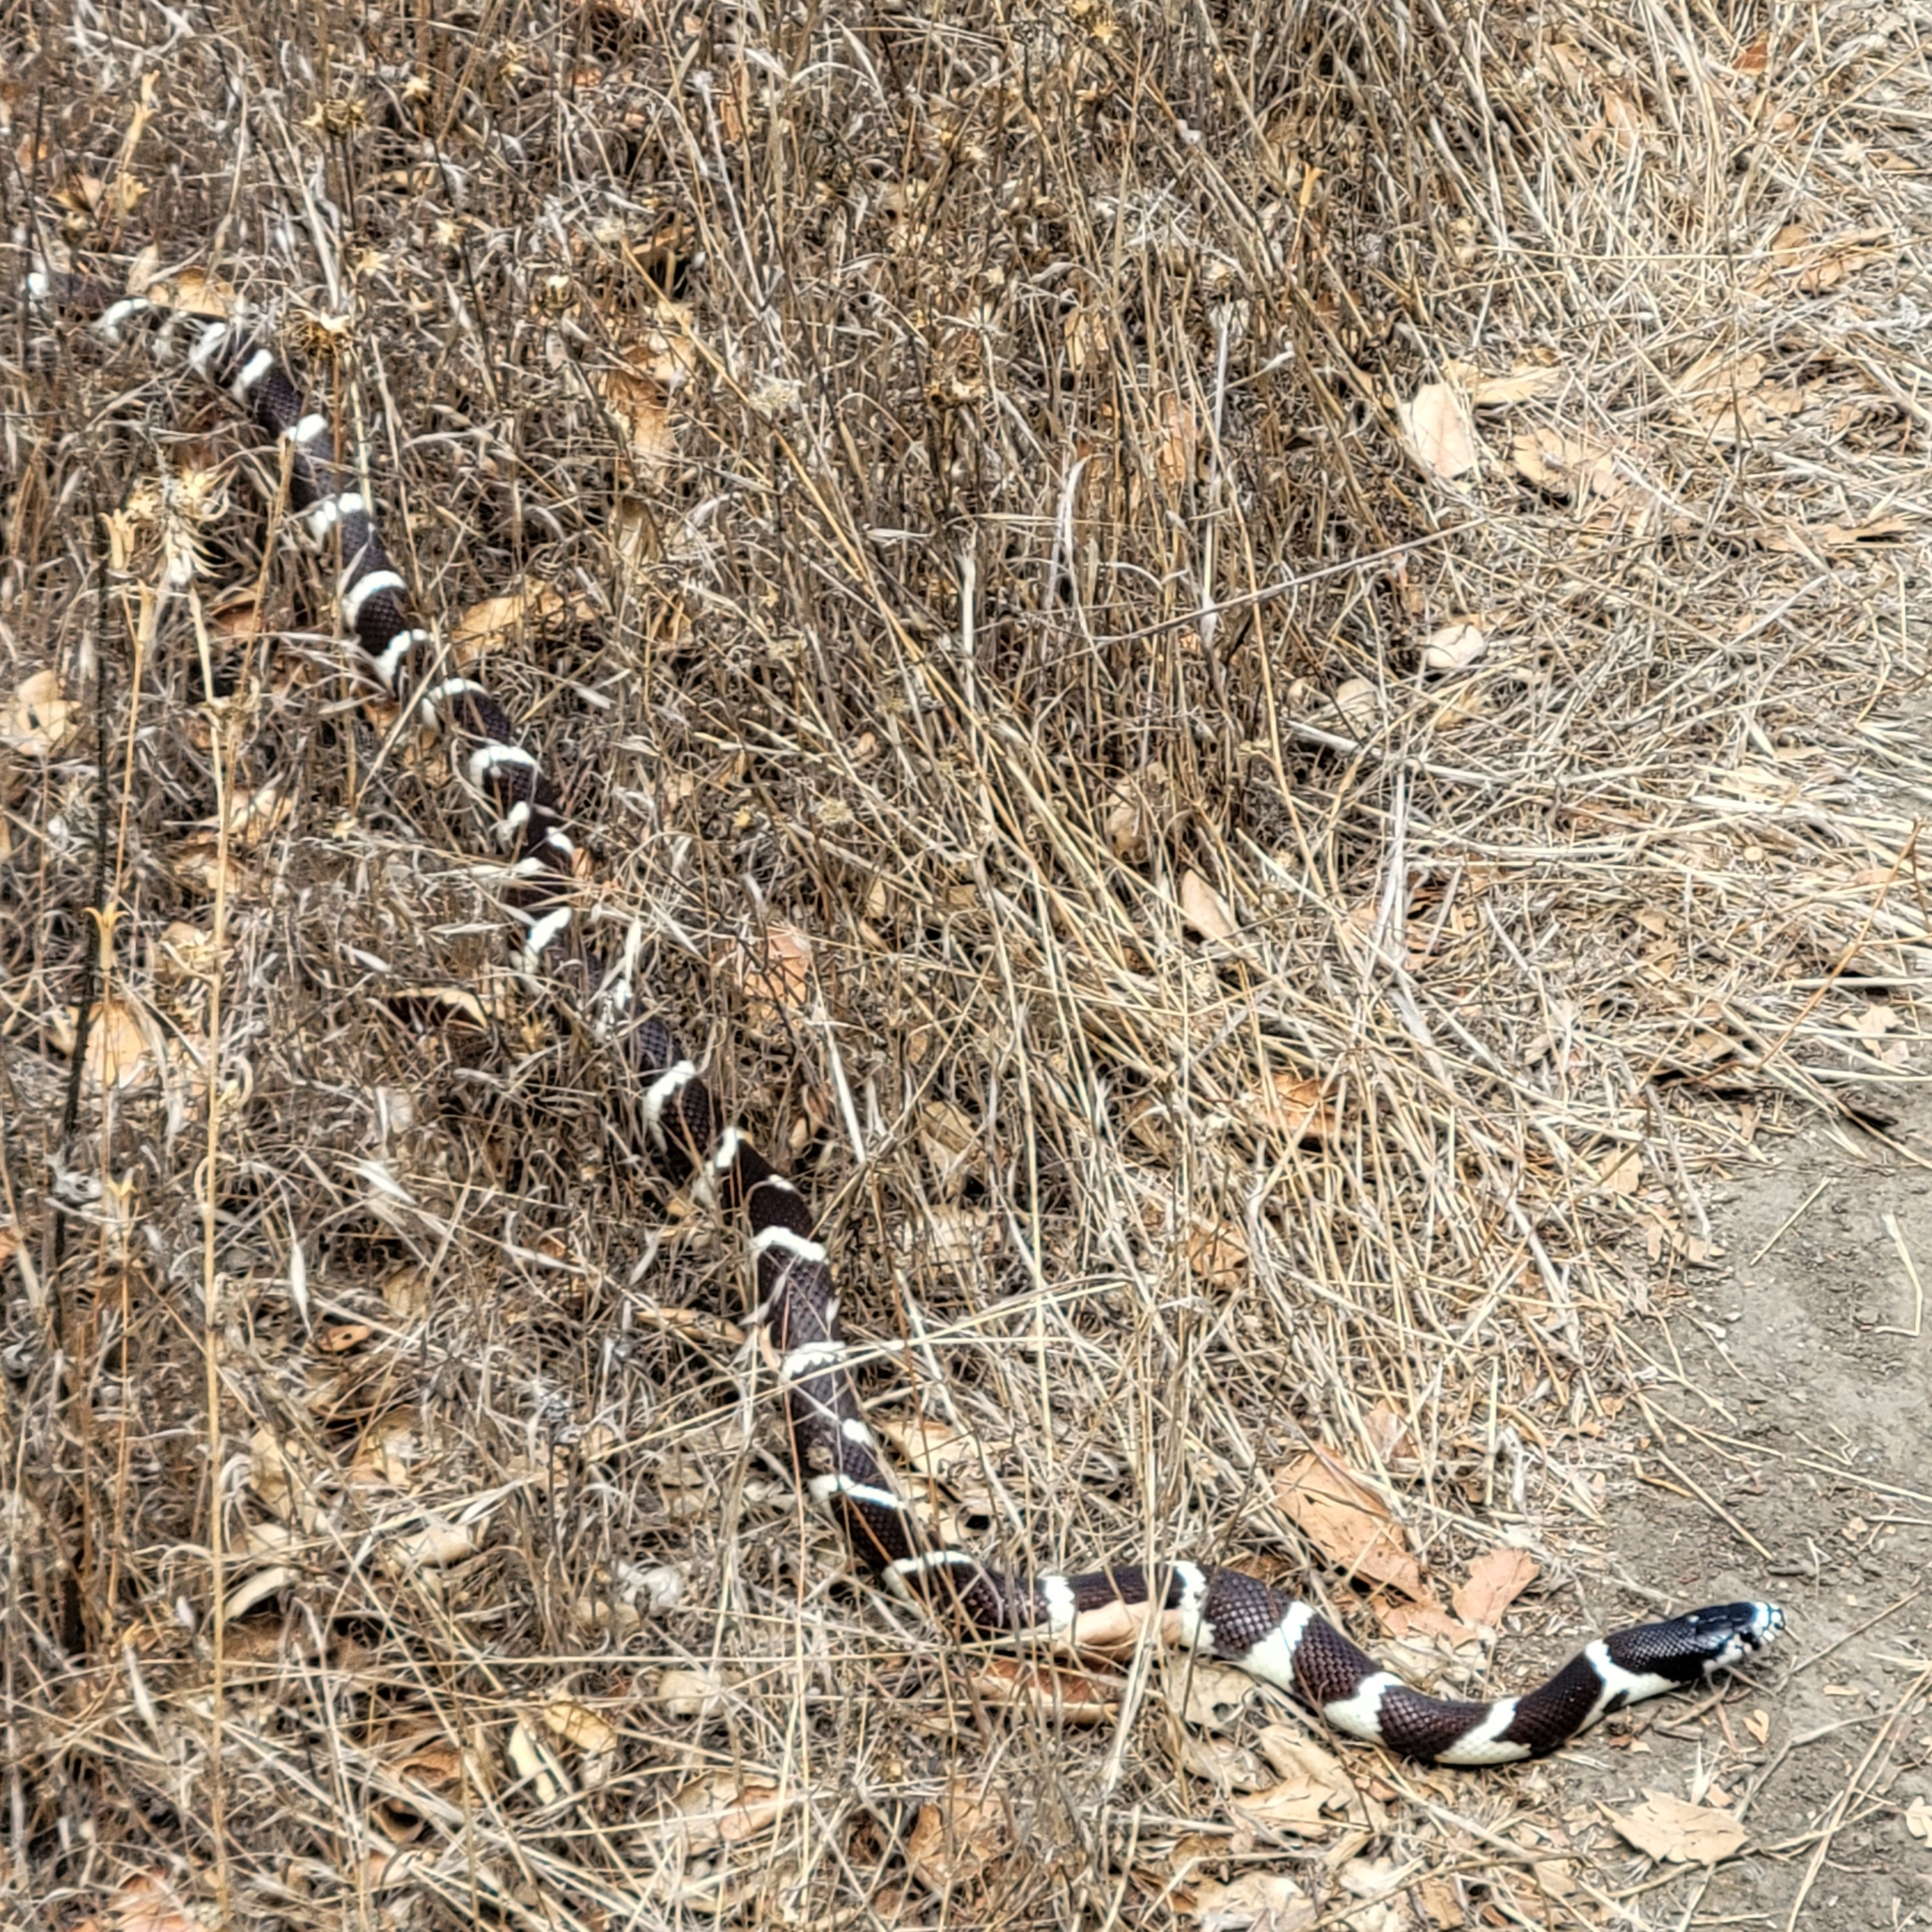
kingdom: Animalia
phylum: Chordata
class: Squamata
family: Colubridae
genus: Lampropeltis
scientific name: Lampropeltis californiae
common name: California kingsnake
